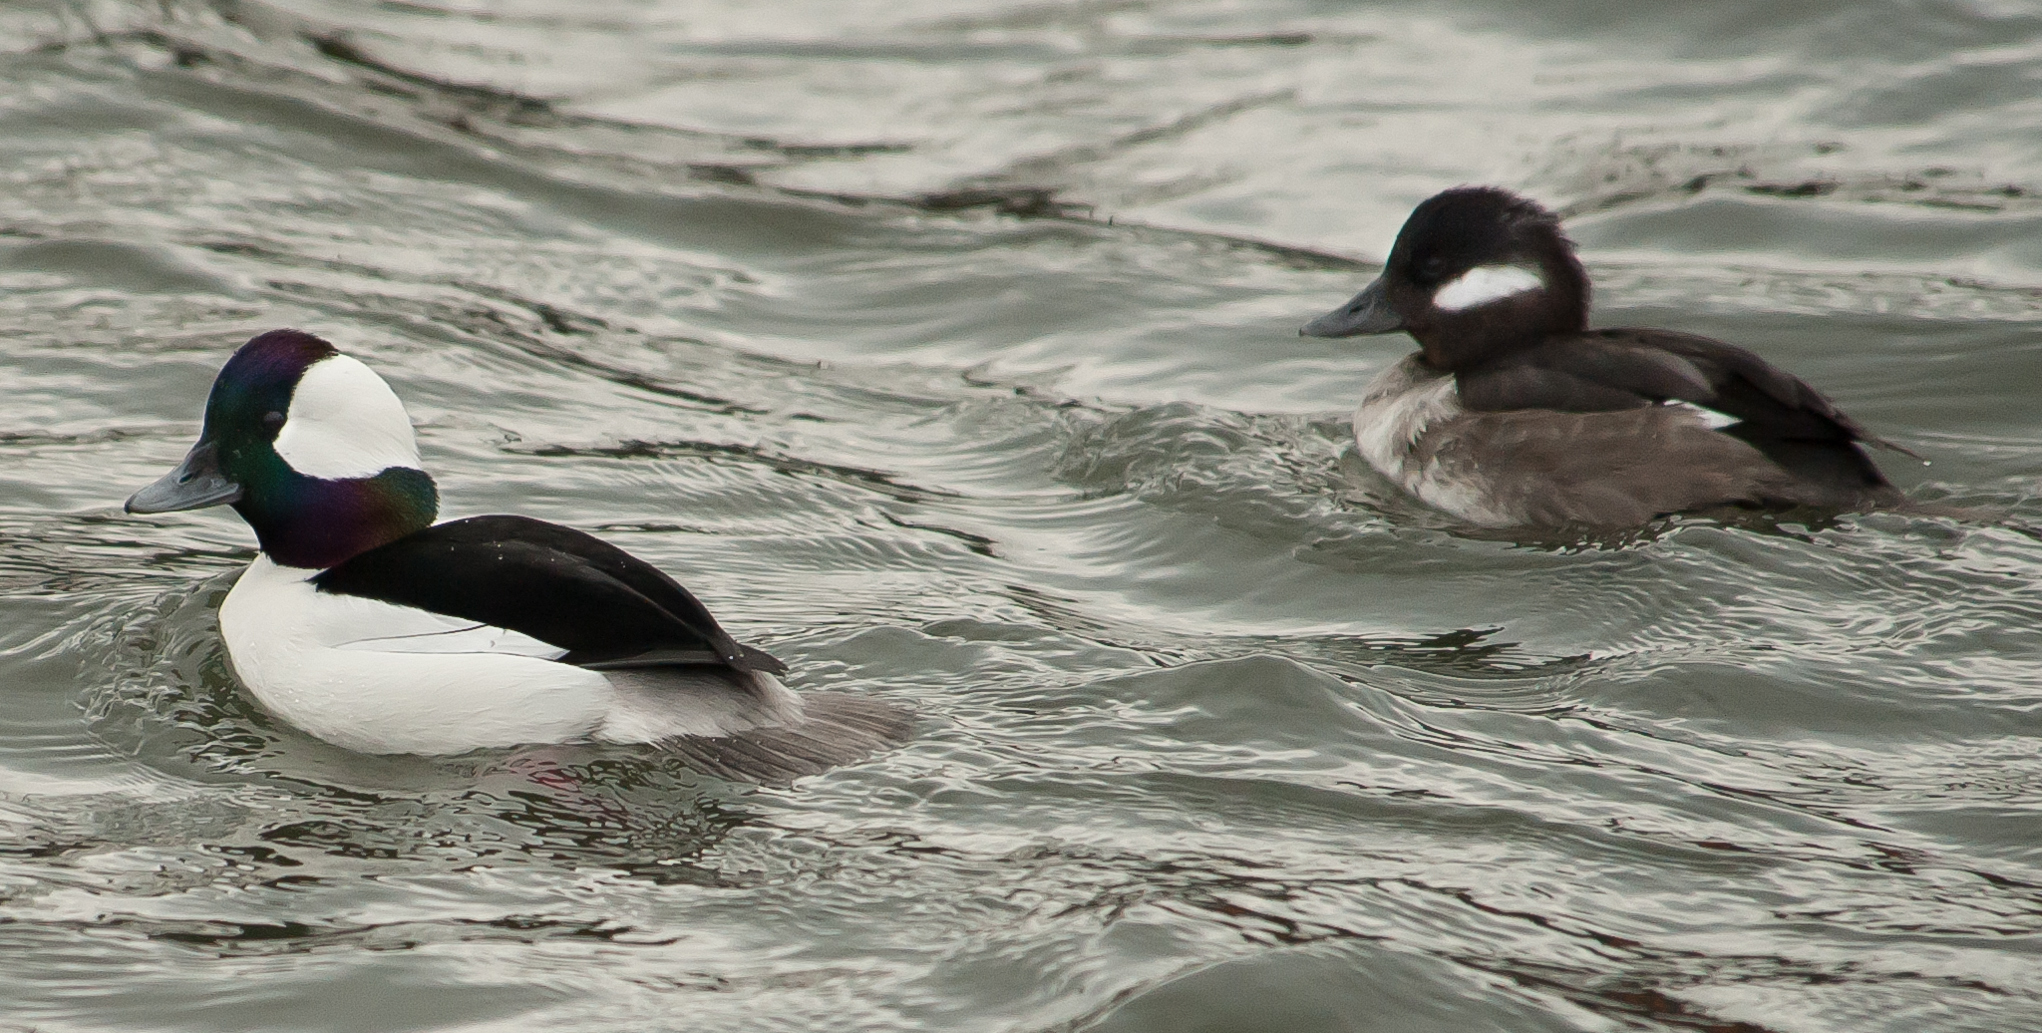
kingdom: Animalia
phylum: Chordata
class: Aves
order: Anseriformes
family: Anatidae
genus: Bucephala
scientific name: Bucephala albeola
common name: Bufflehead
